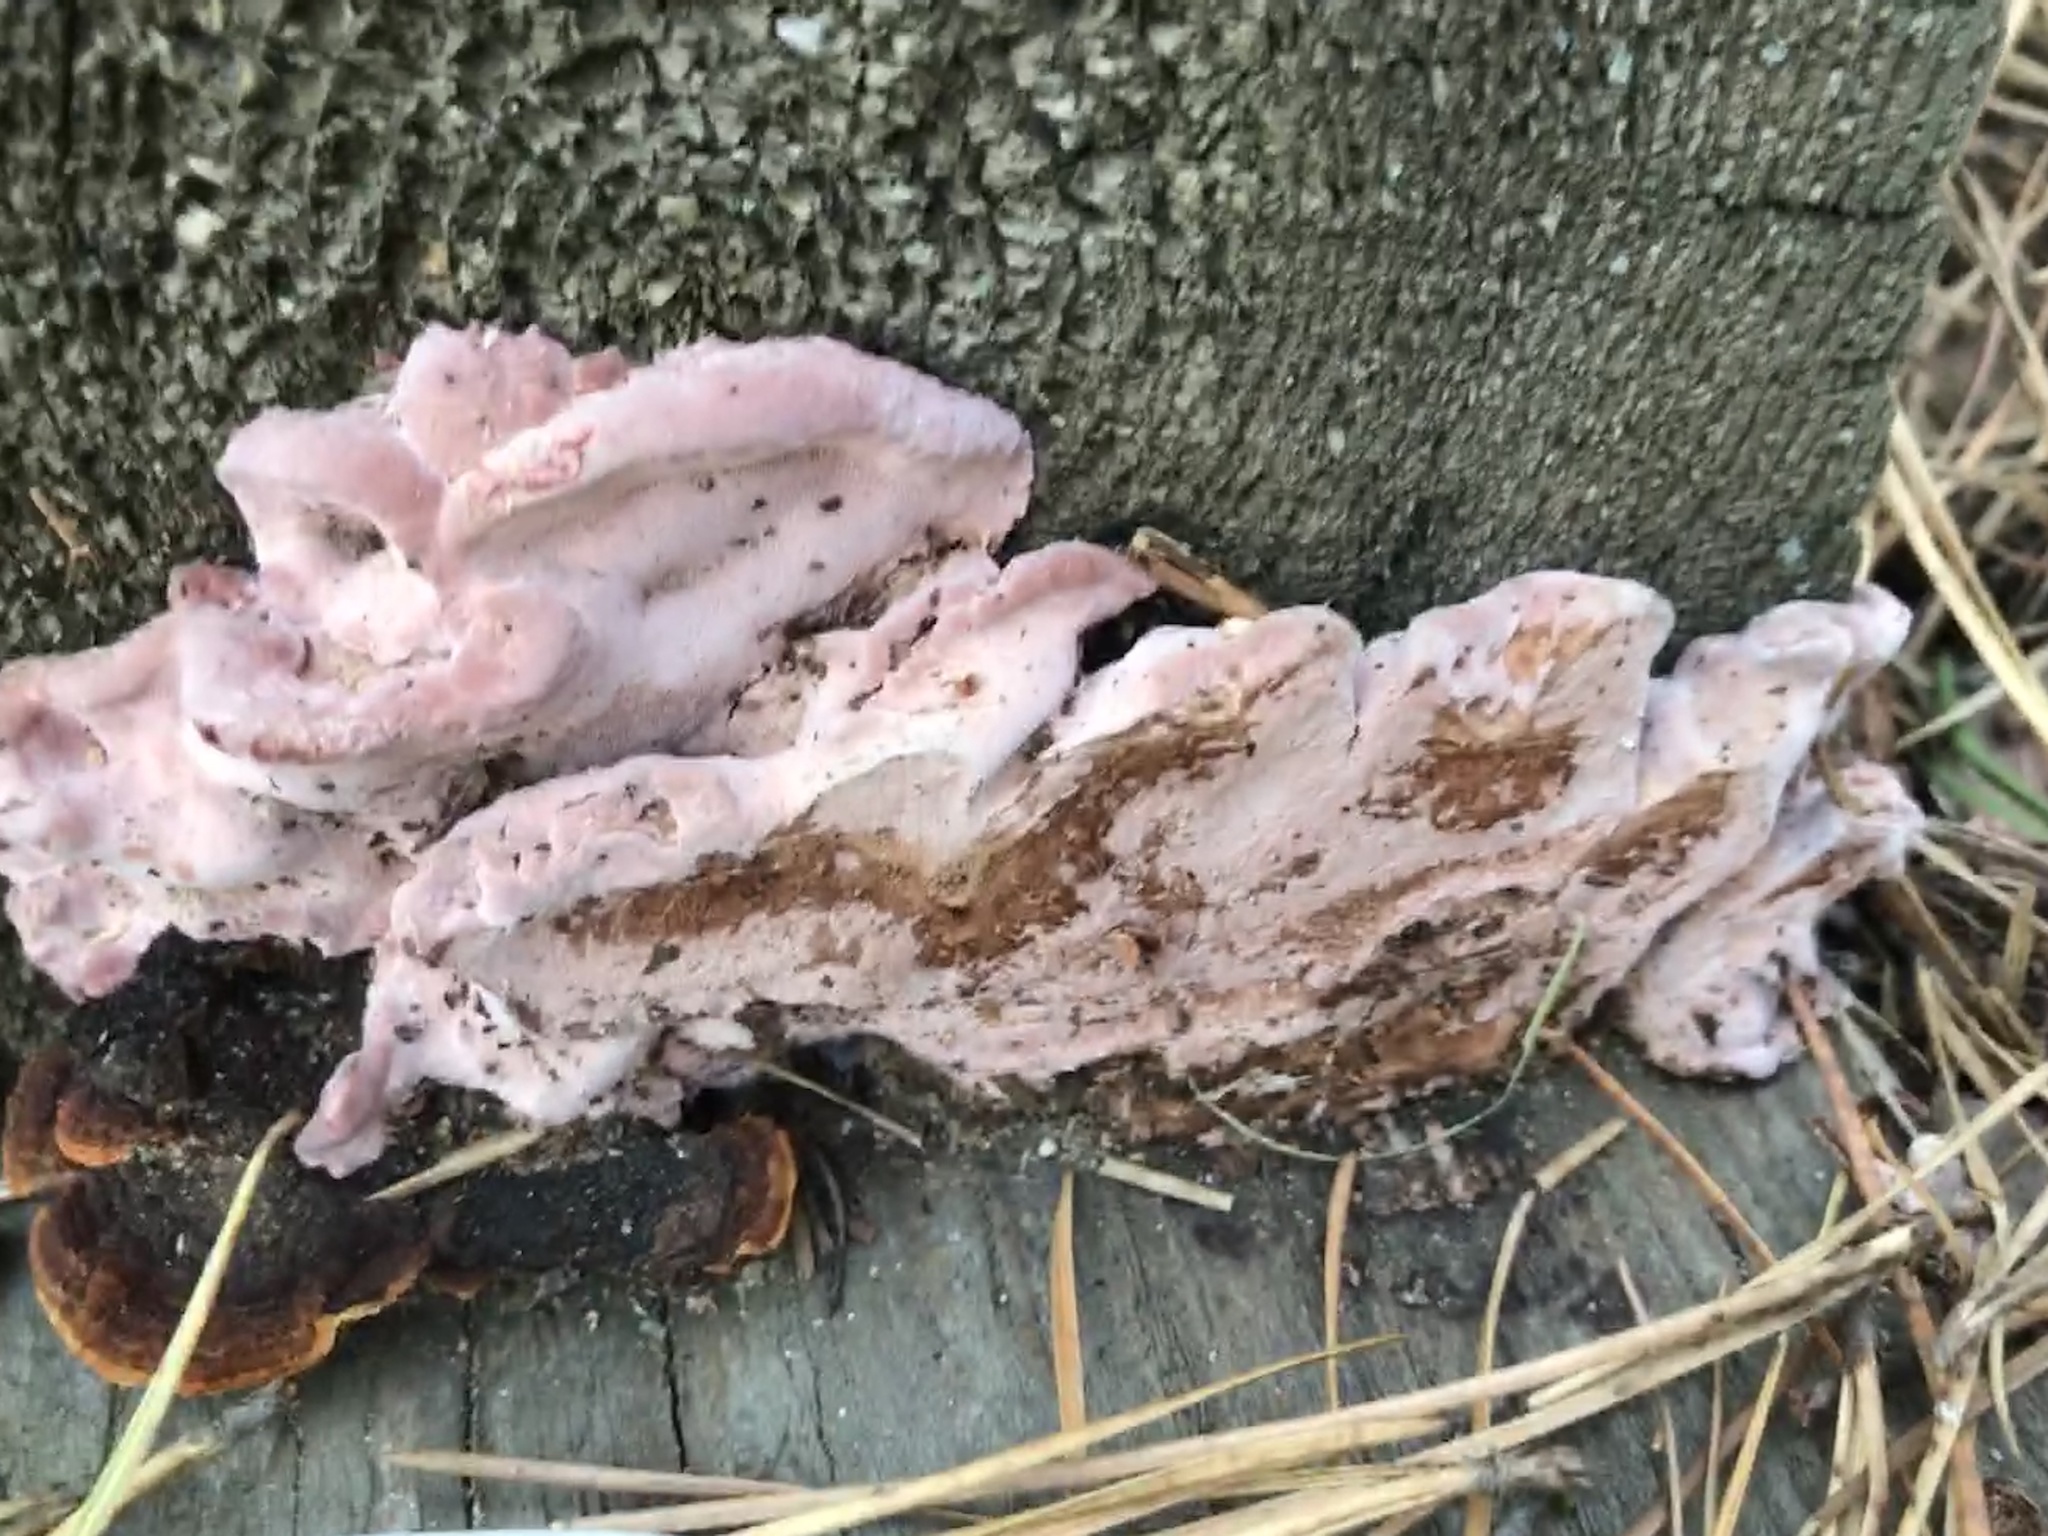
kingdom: Fungi
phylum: Basidiomycota
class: Agaricomycetes
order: Polyporales
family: Fomitopsidaceae
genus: Rhodofomes
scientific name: Rhodofomes cajanderi
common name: Rosy conk
